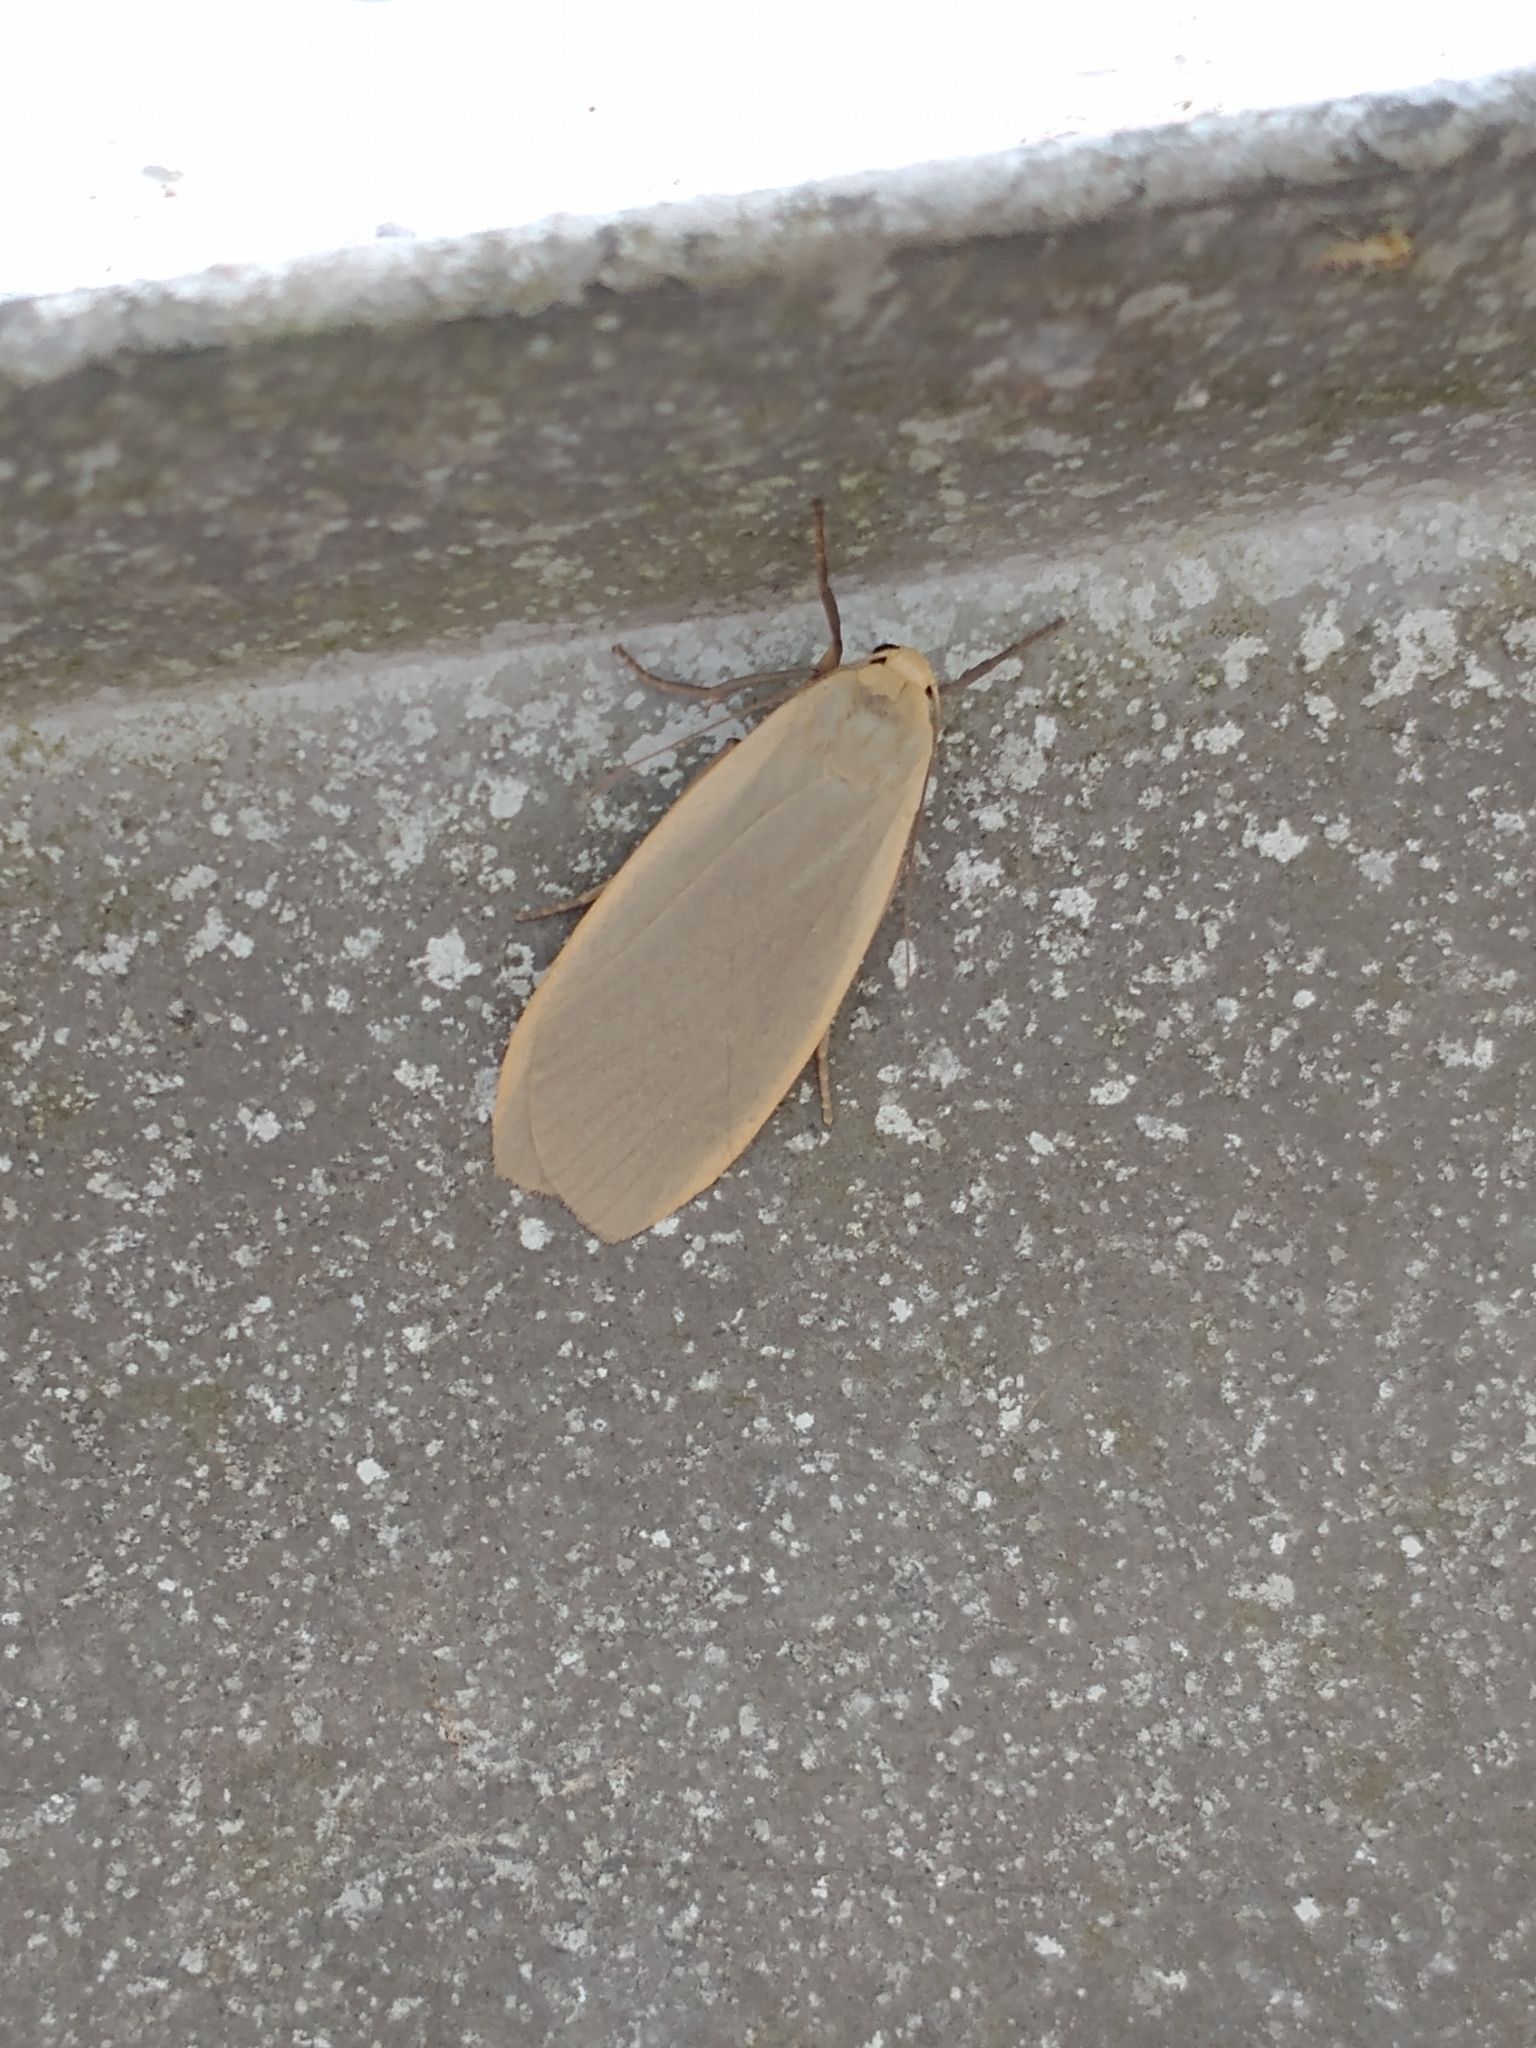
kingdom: Animalia
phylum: Arthropoda
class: Insecta
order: Lepidoptera
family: Erebidae
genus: Collita
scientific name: Collita griseola
